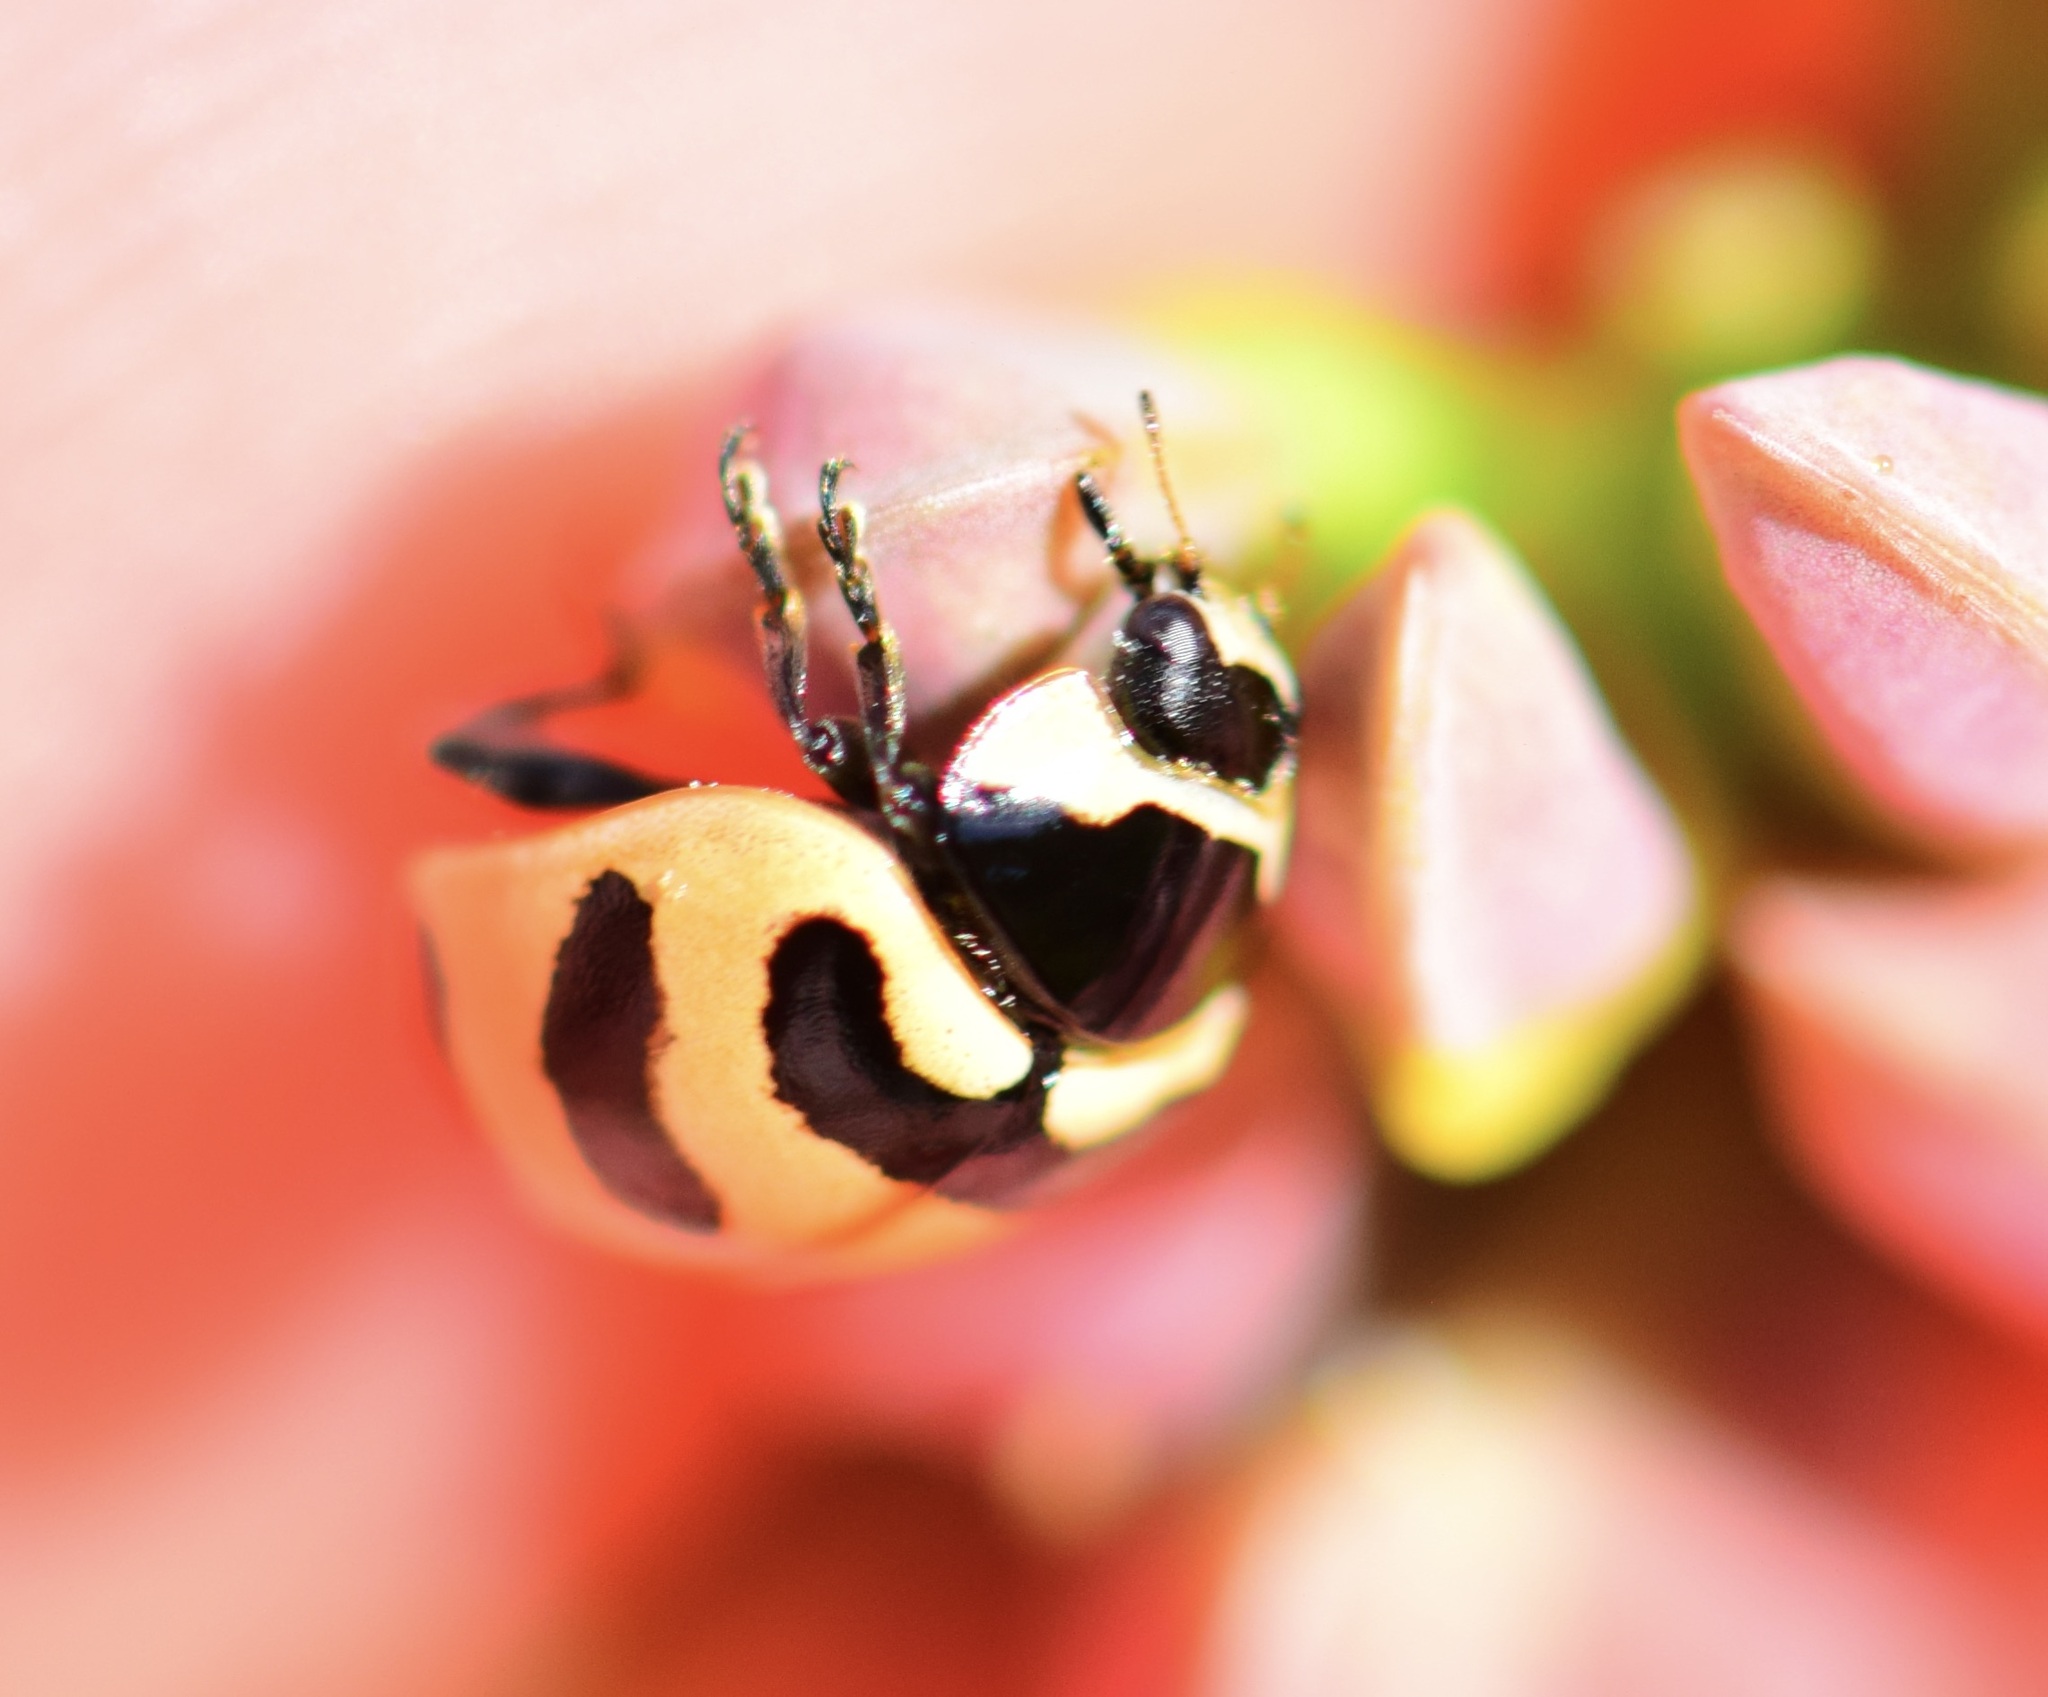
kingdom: Animalia
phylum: Arthropoda
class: Insecta
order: Coleoptera
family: Coccinellidae
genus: Coccinella
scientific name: Coccinella trifasciata
